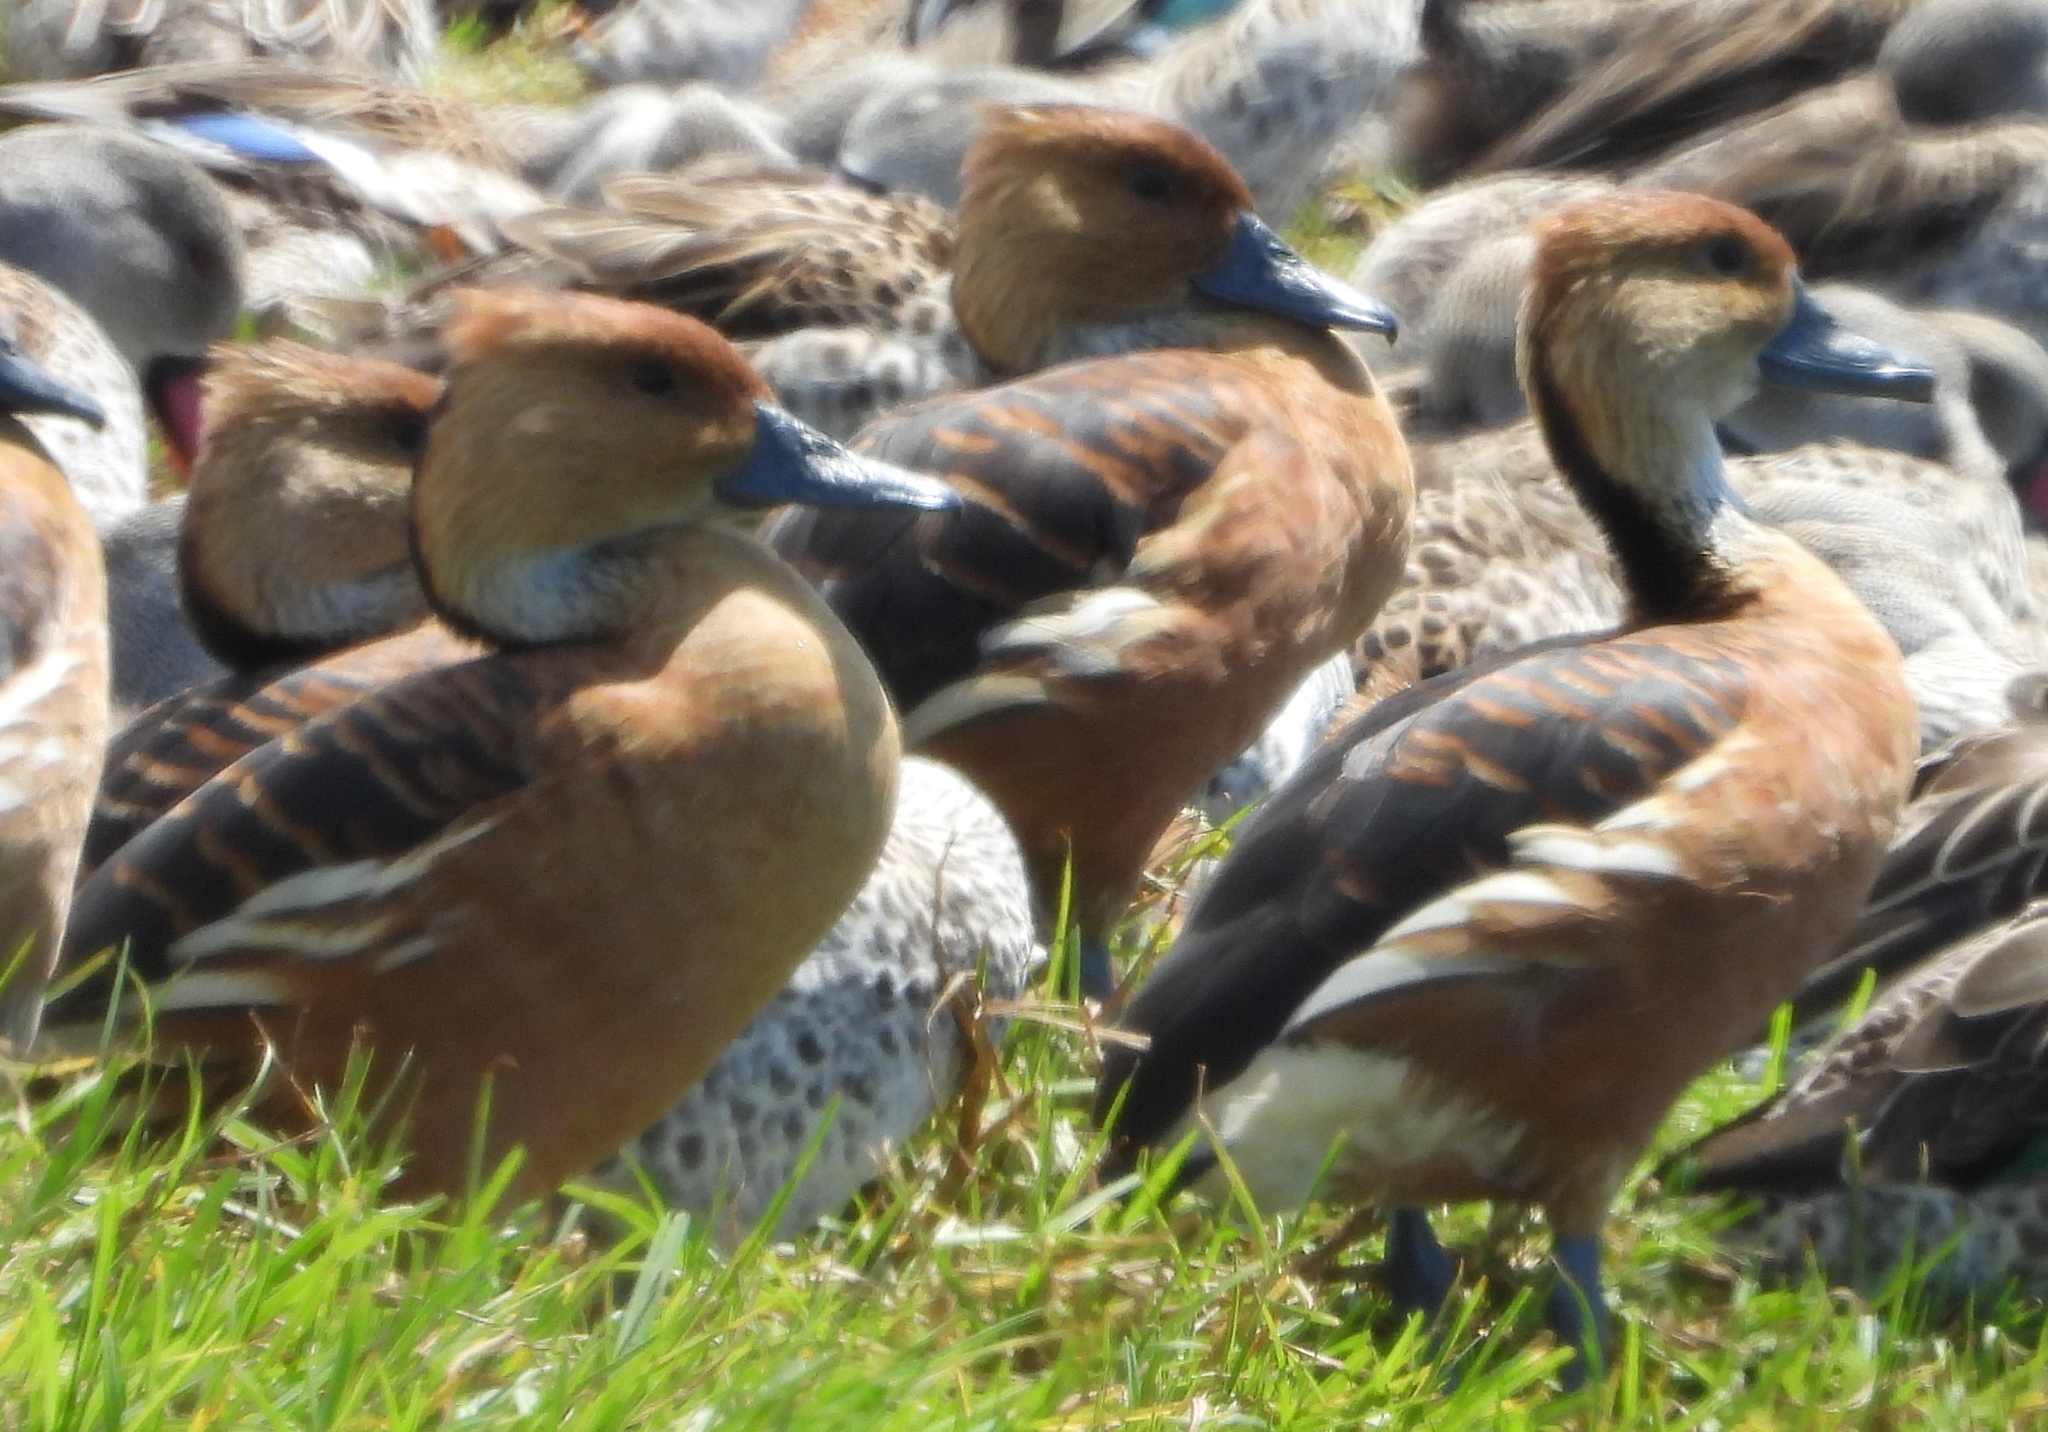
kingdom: Animalia
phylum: Chordata
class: Aves
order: Anseriformes
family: Anatidae
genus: Dendrocygna
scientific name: Dendrocygna bicolor
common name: Fulvous whistling duck
